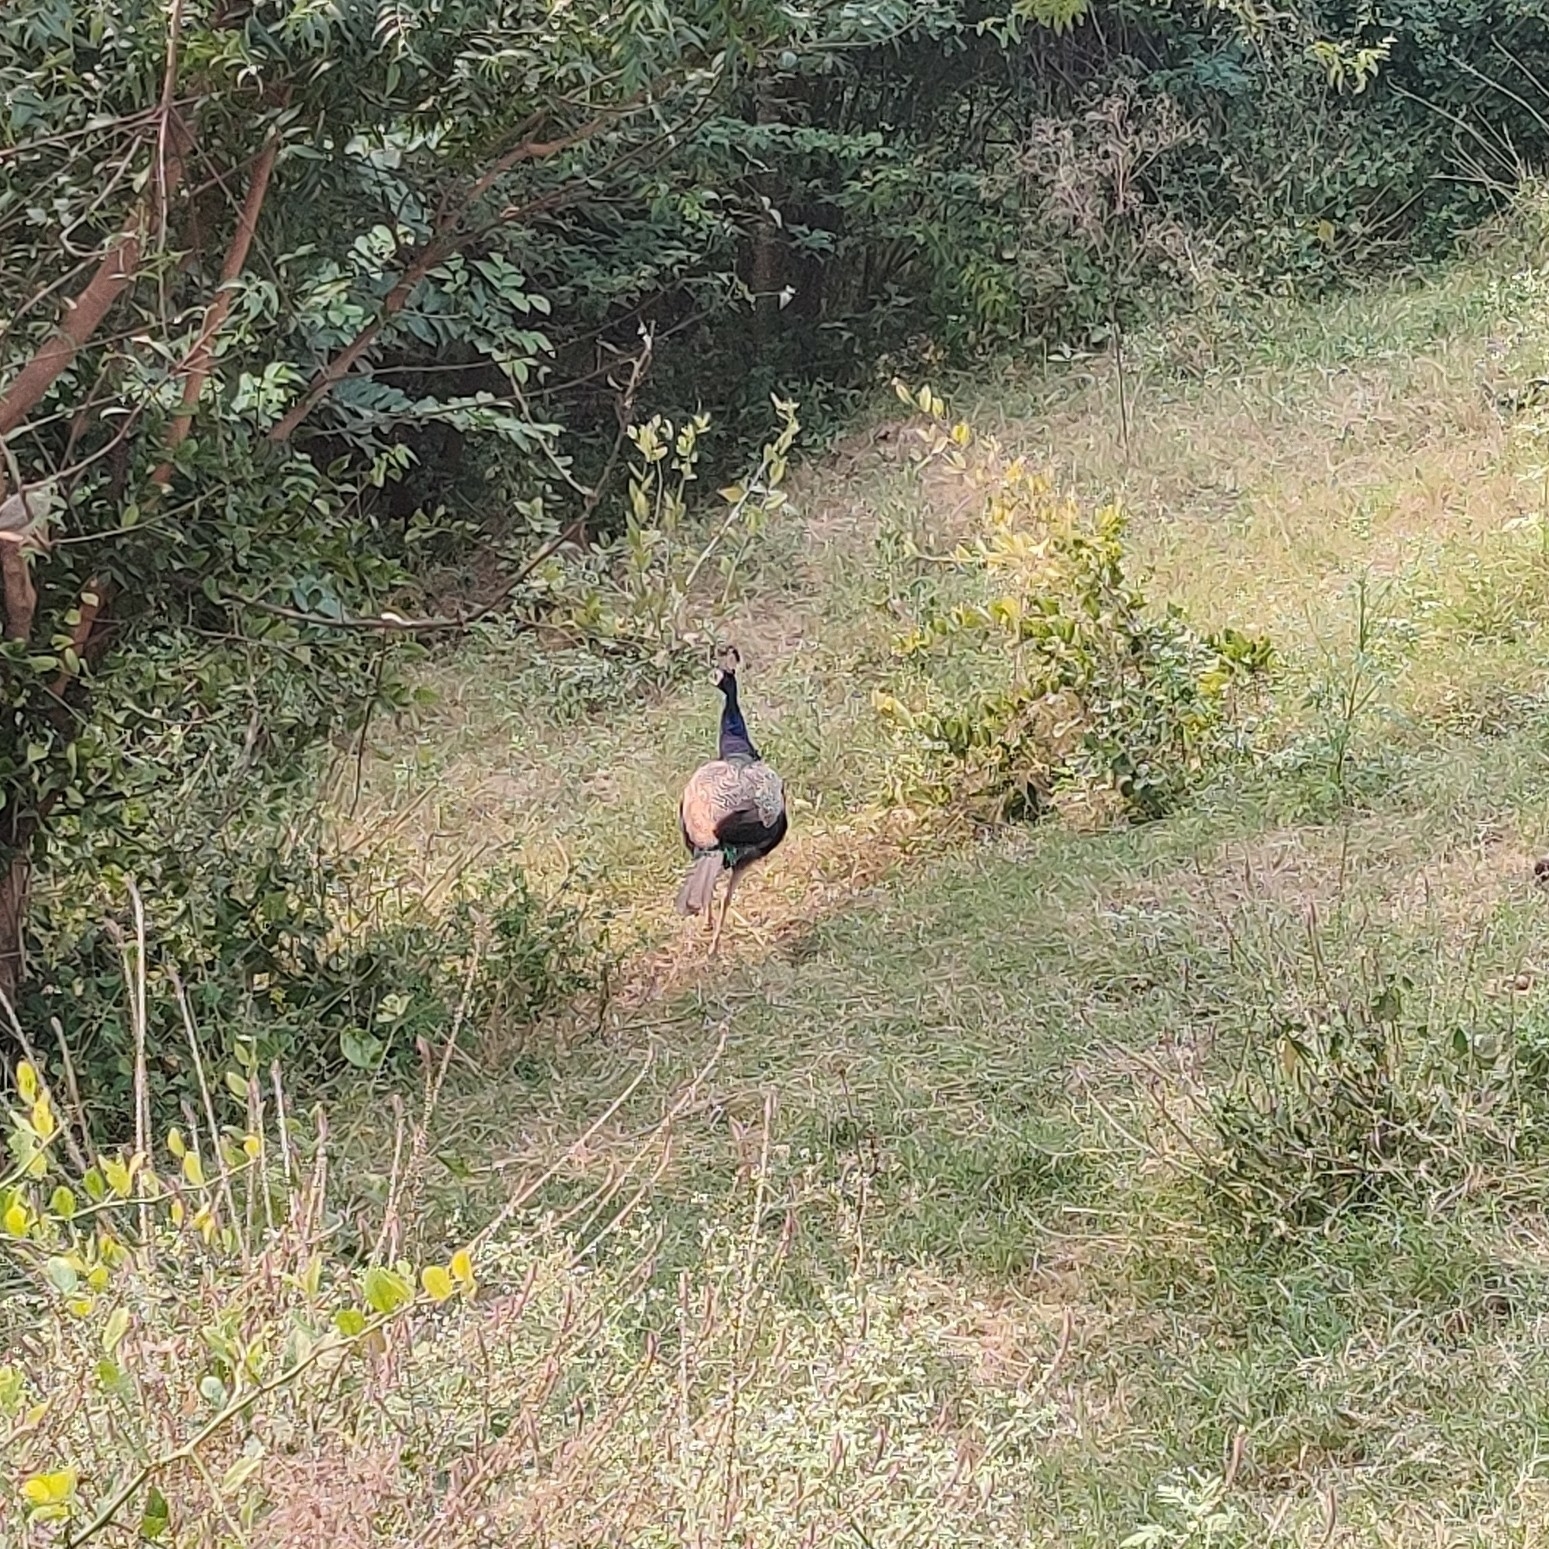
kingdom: Animalia
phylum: Chordata
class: Aves
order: Galliformes
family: Phasianidae
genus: Pavo
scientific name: Pavo cristatus
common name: Indian peafowl
